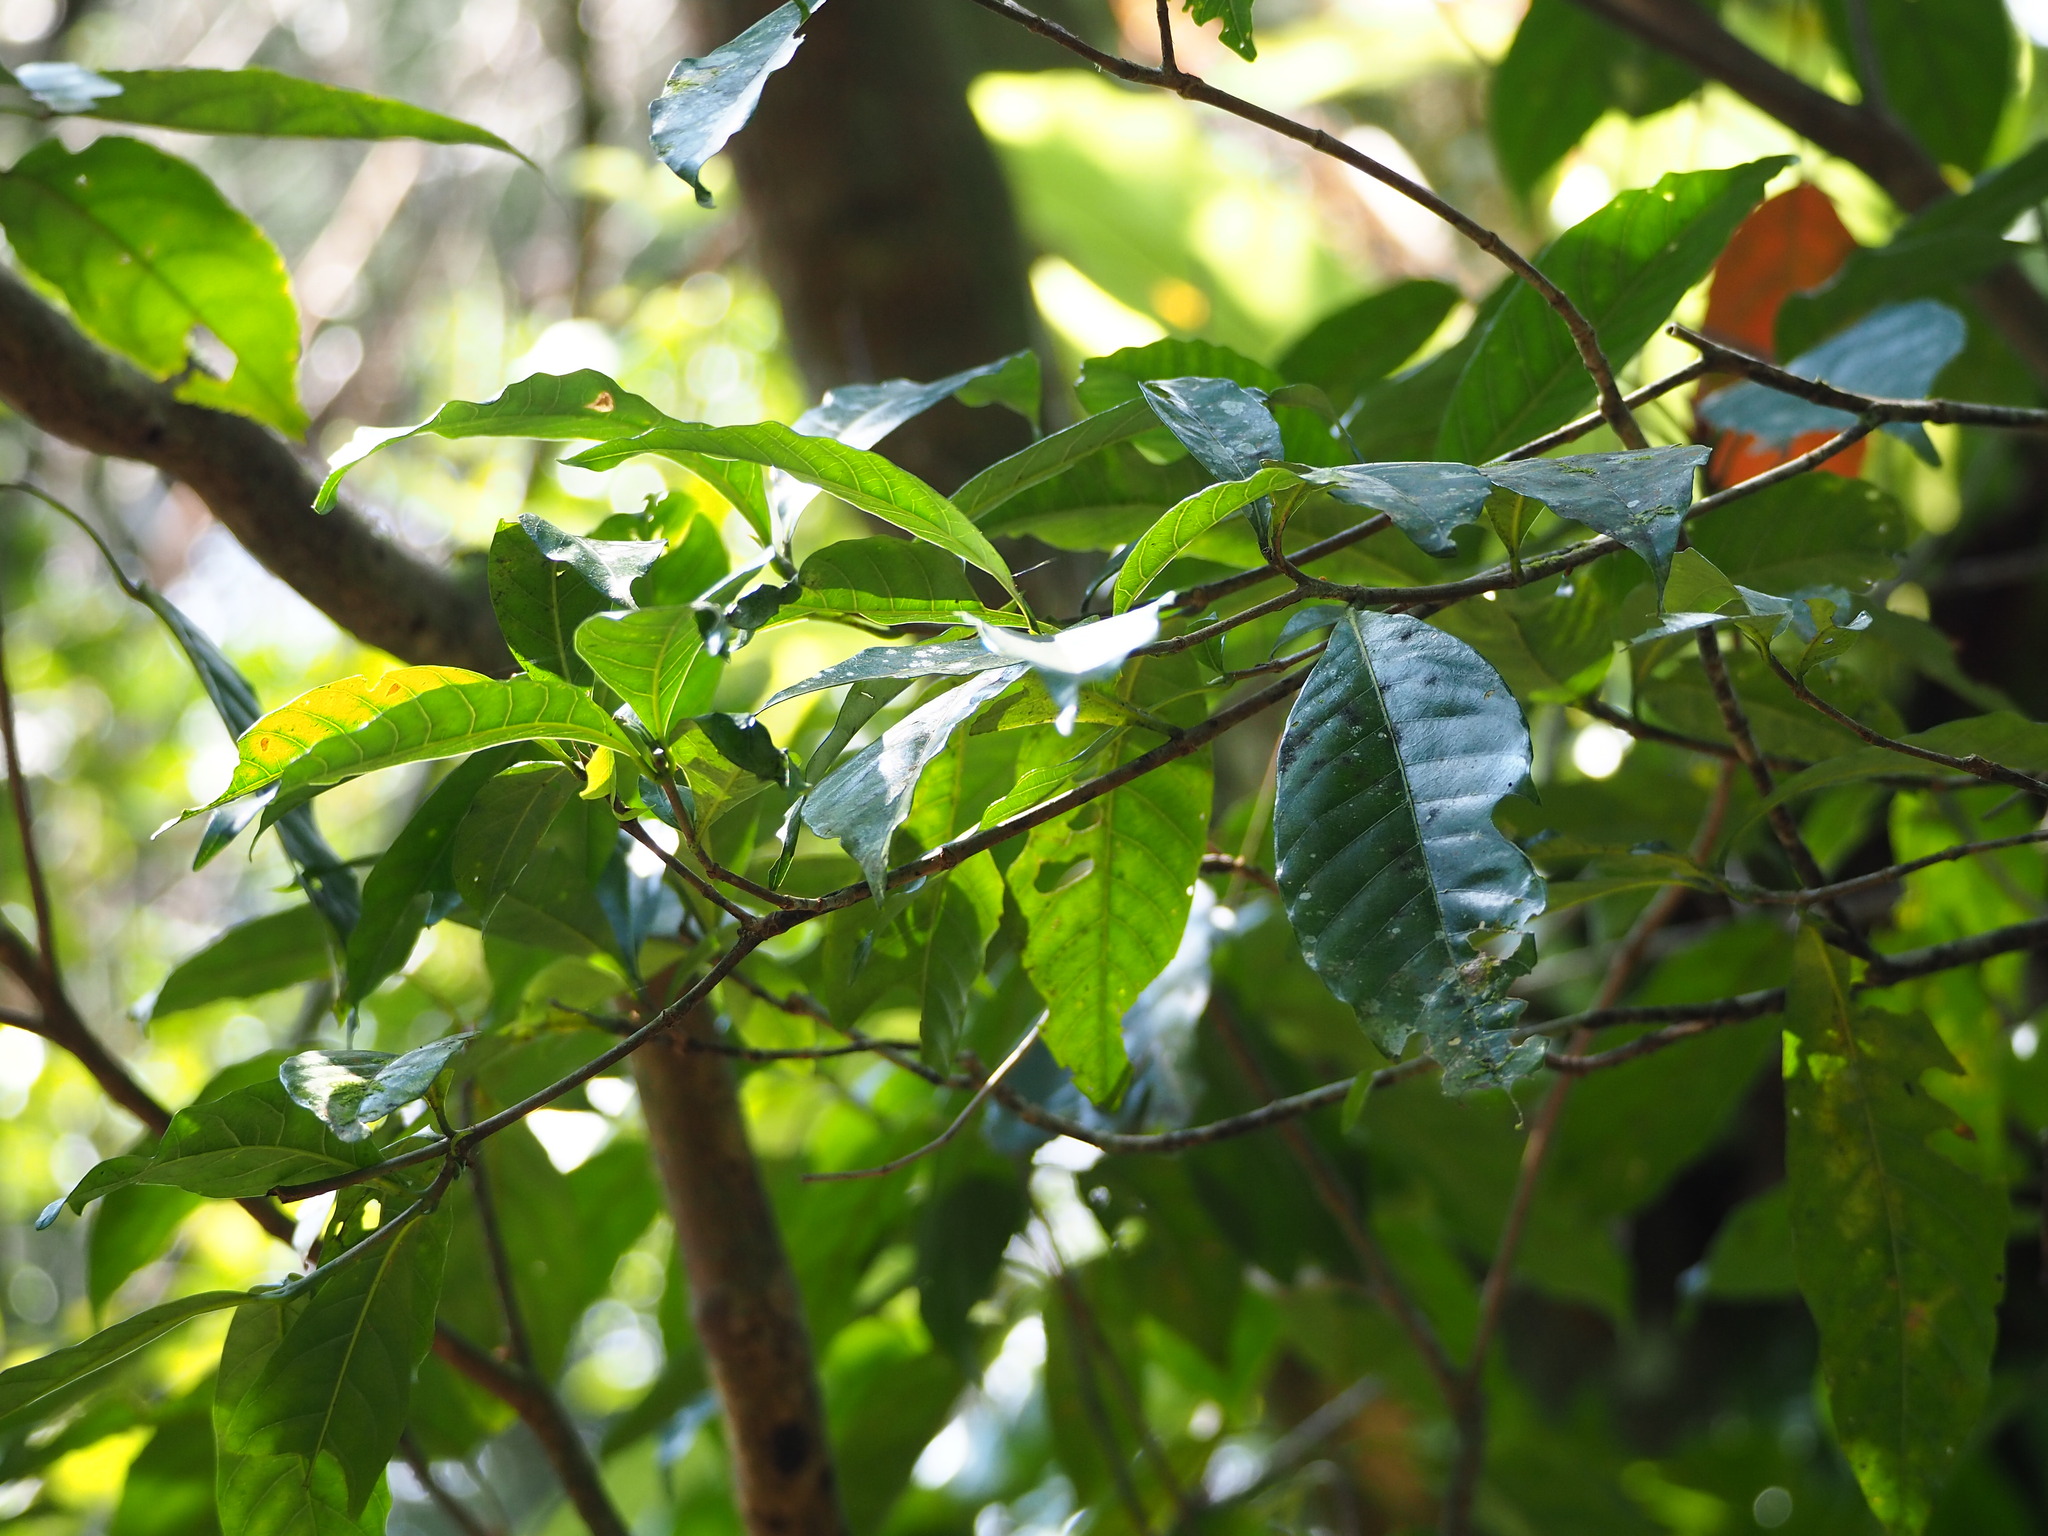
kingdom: Plantae
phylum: Tracheophyta
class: Magnoliopsida
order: Oxalidales
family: Elaeocarpaceae
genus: Elaeocarpus
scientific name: Elaeocarpus japonicus
